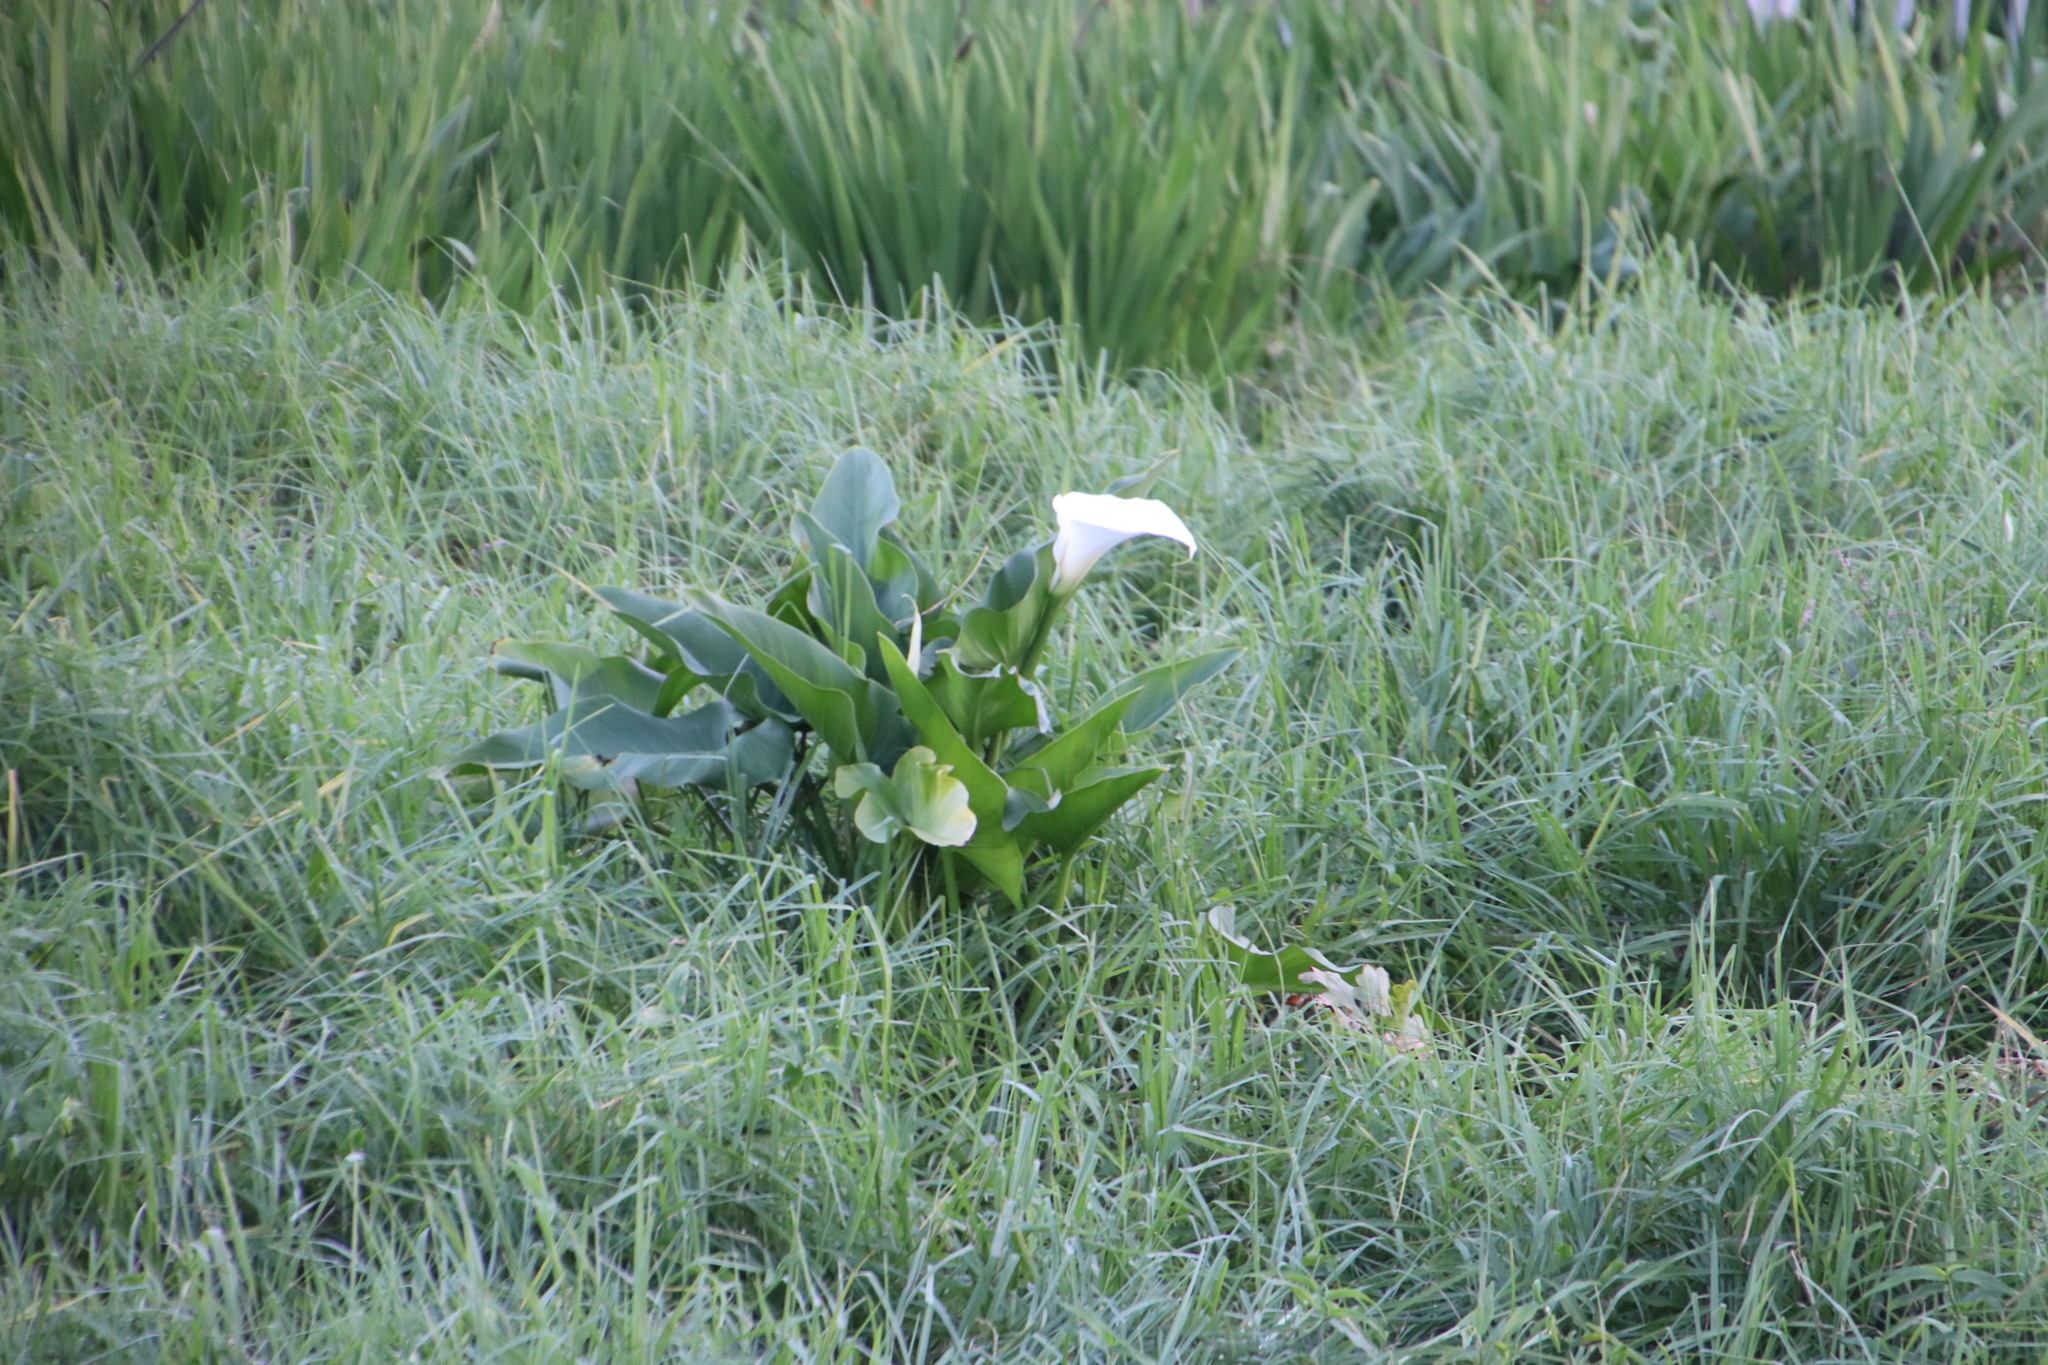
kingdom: Plantae
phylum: Tracheophyta
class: Liliopsida
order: Alismatales
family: Araceae
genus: Zantedeschia
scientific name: Zantedeschia aethiopica
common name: Altar-lily
